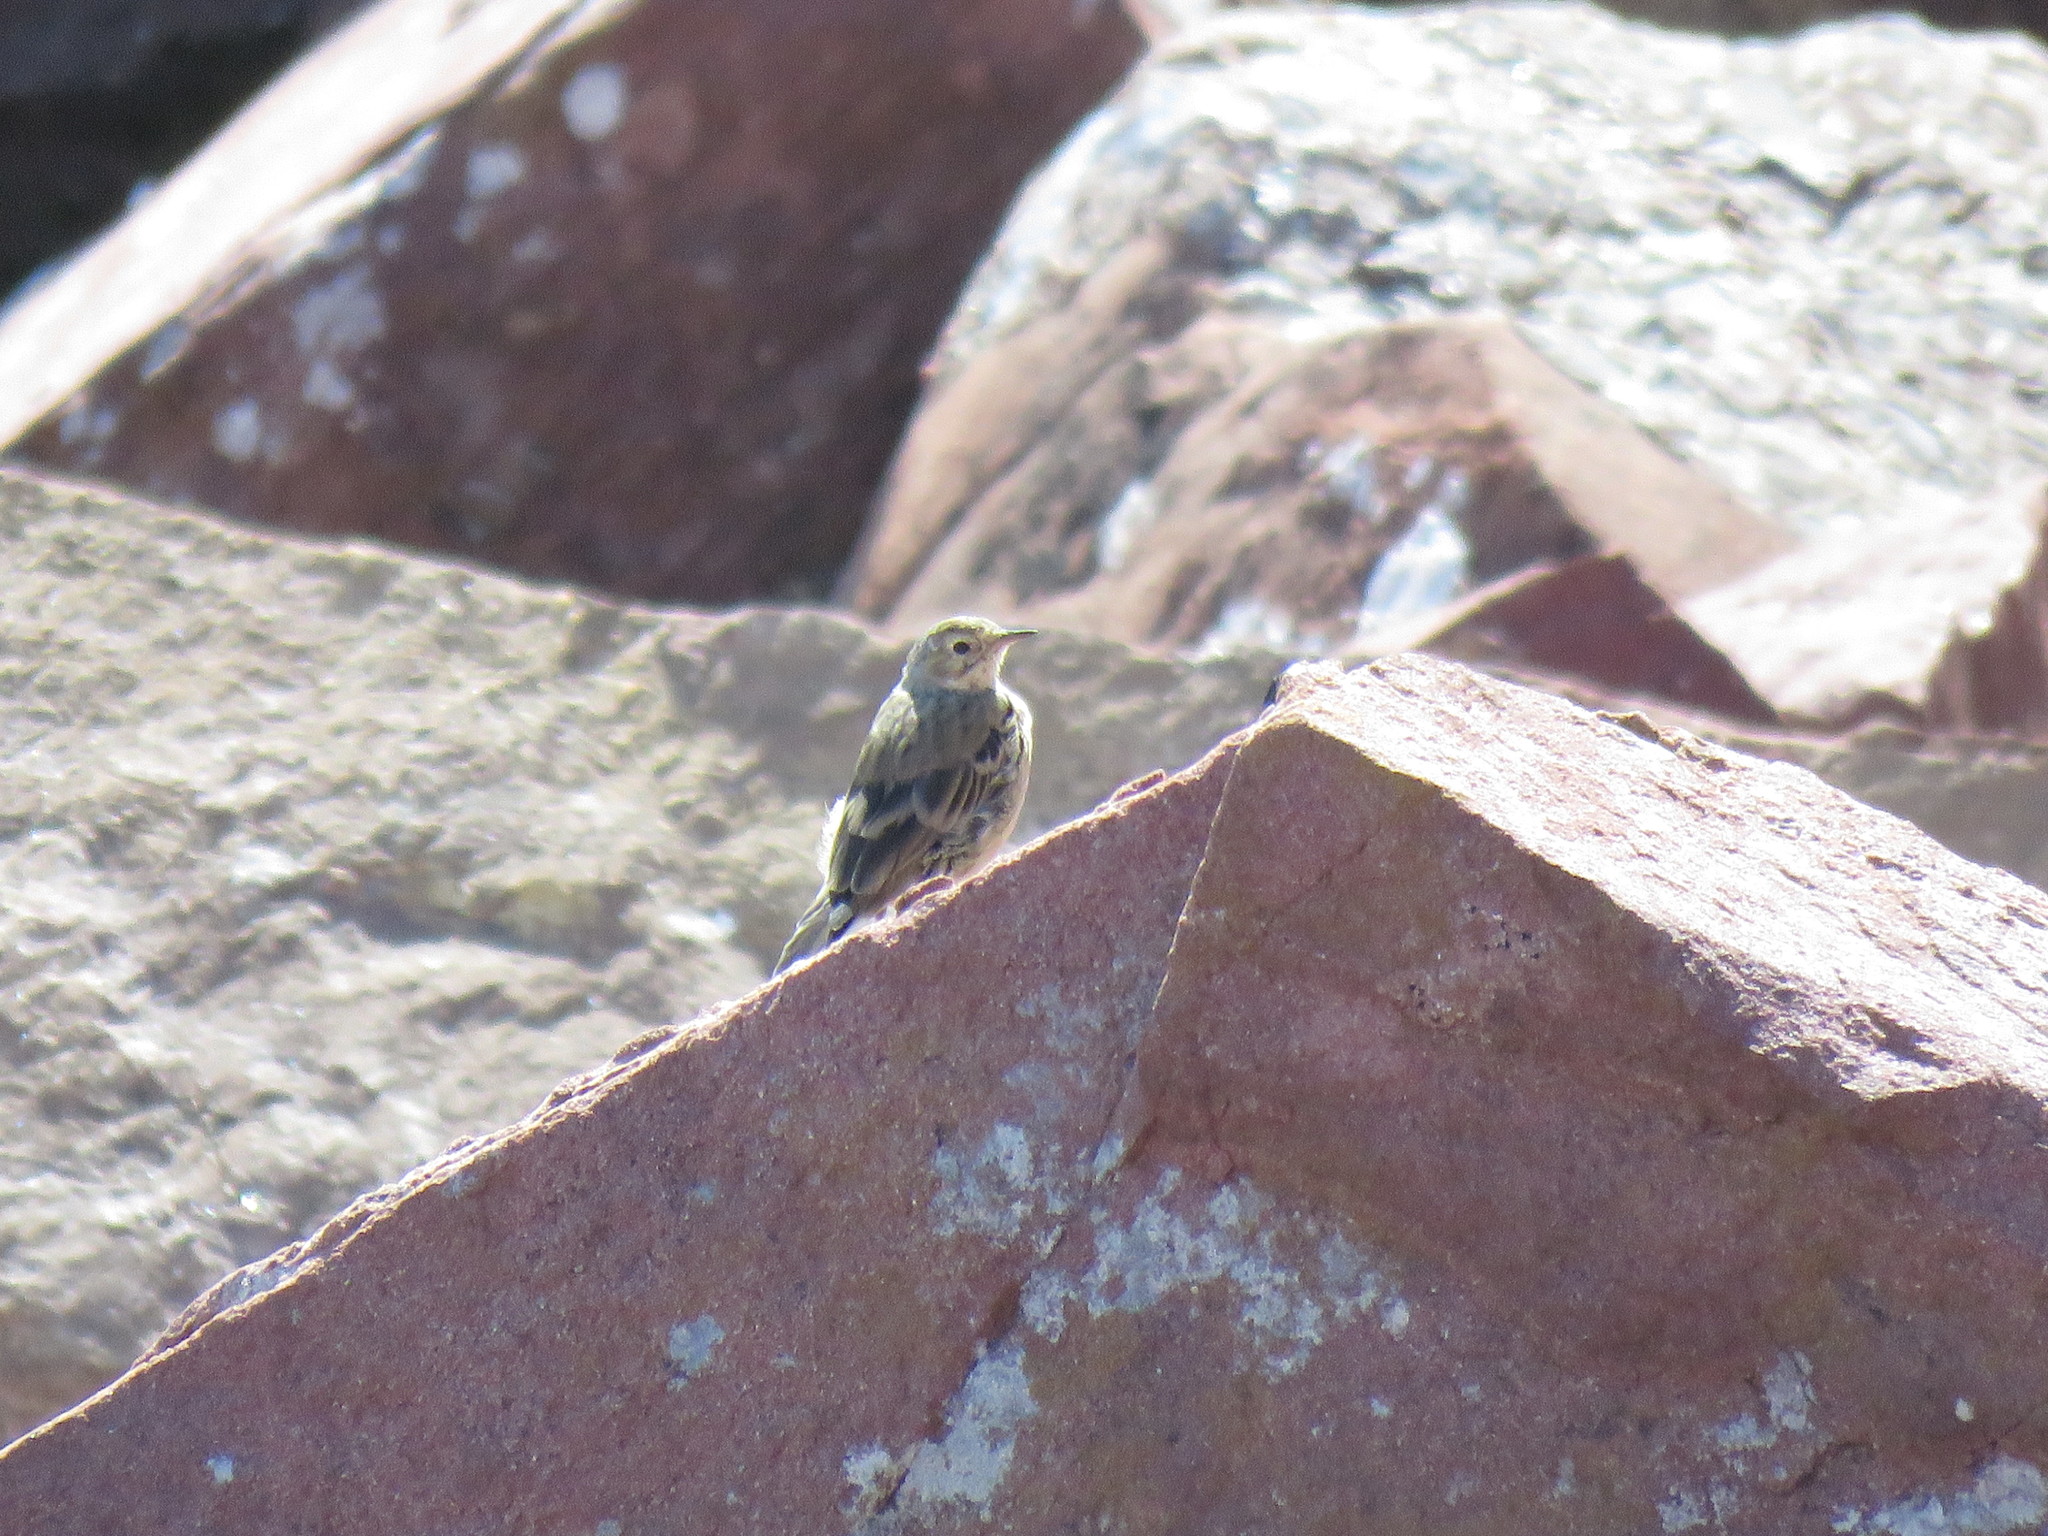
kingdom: Animalia
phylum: Chordata
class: Aves
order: Passeriformes
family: Motacillidae
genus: Anthus
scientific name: Anthus rubescens
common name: Buff-bellied pipit
